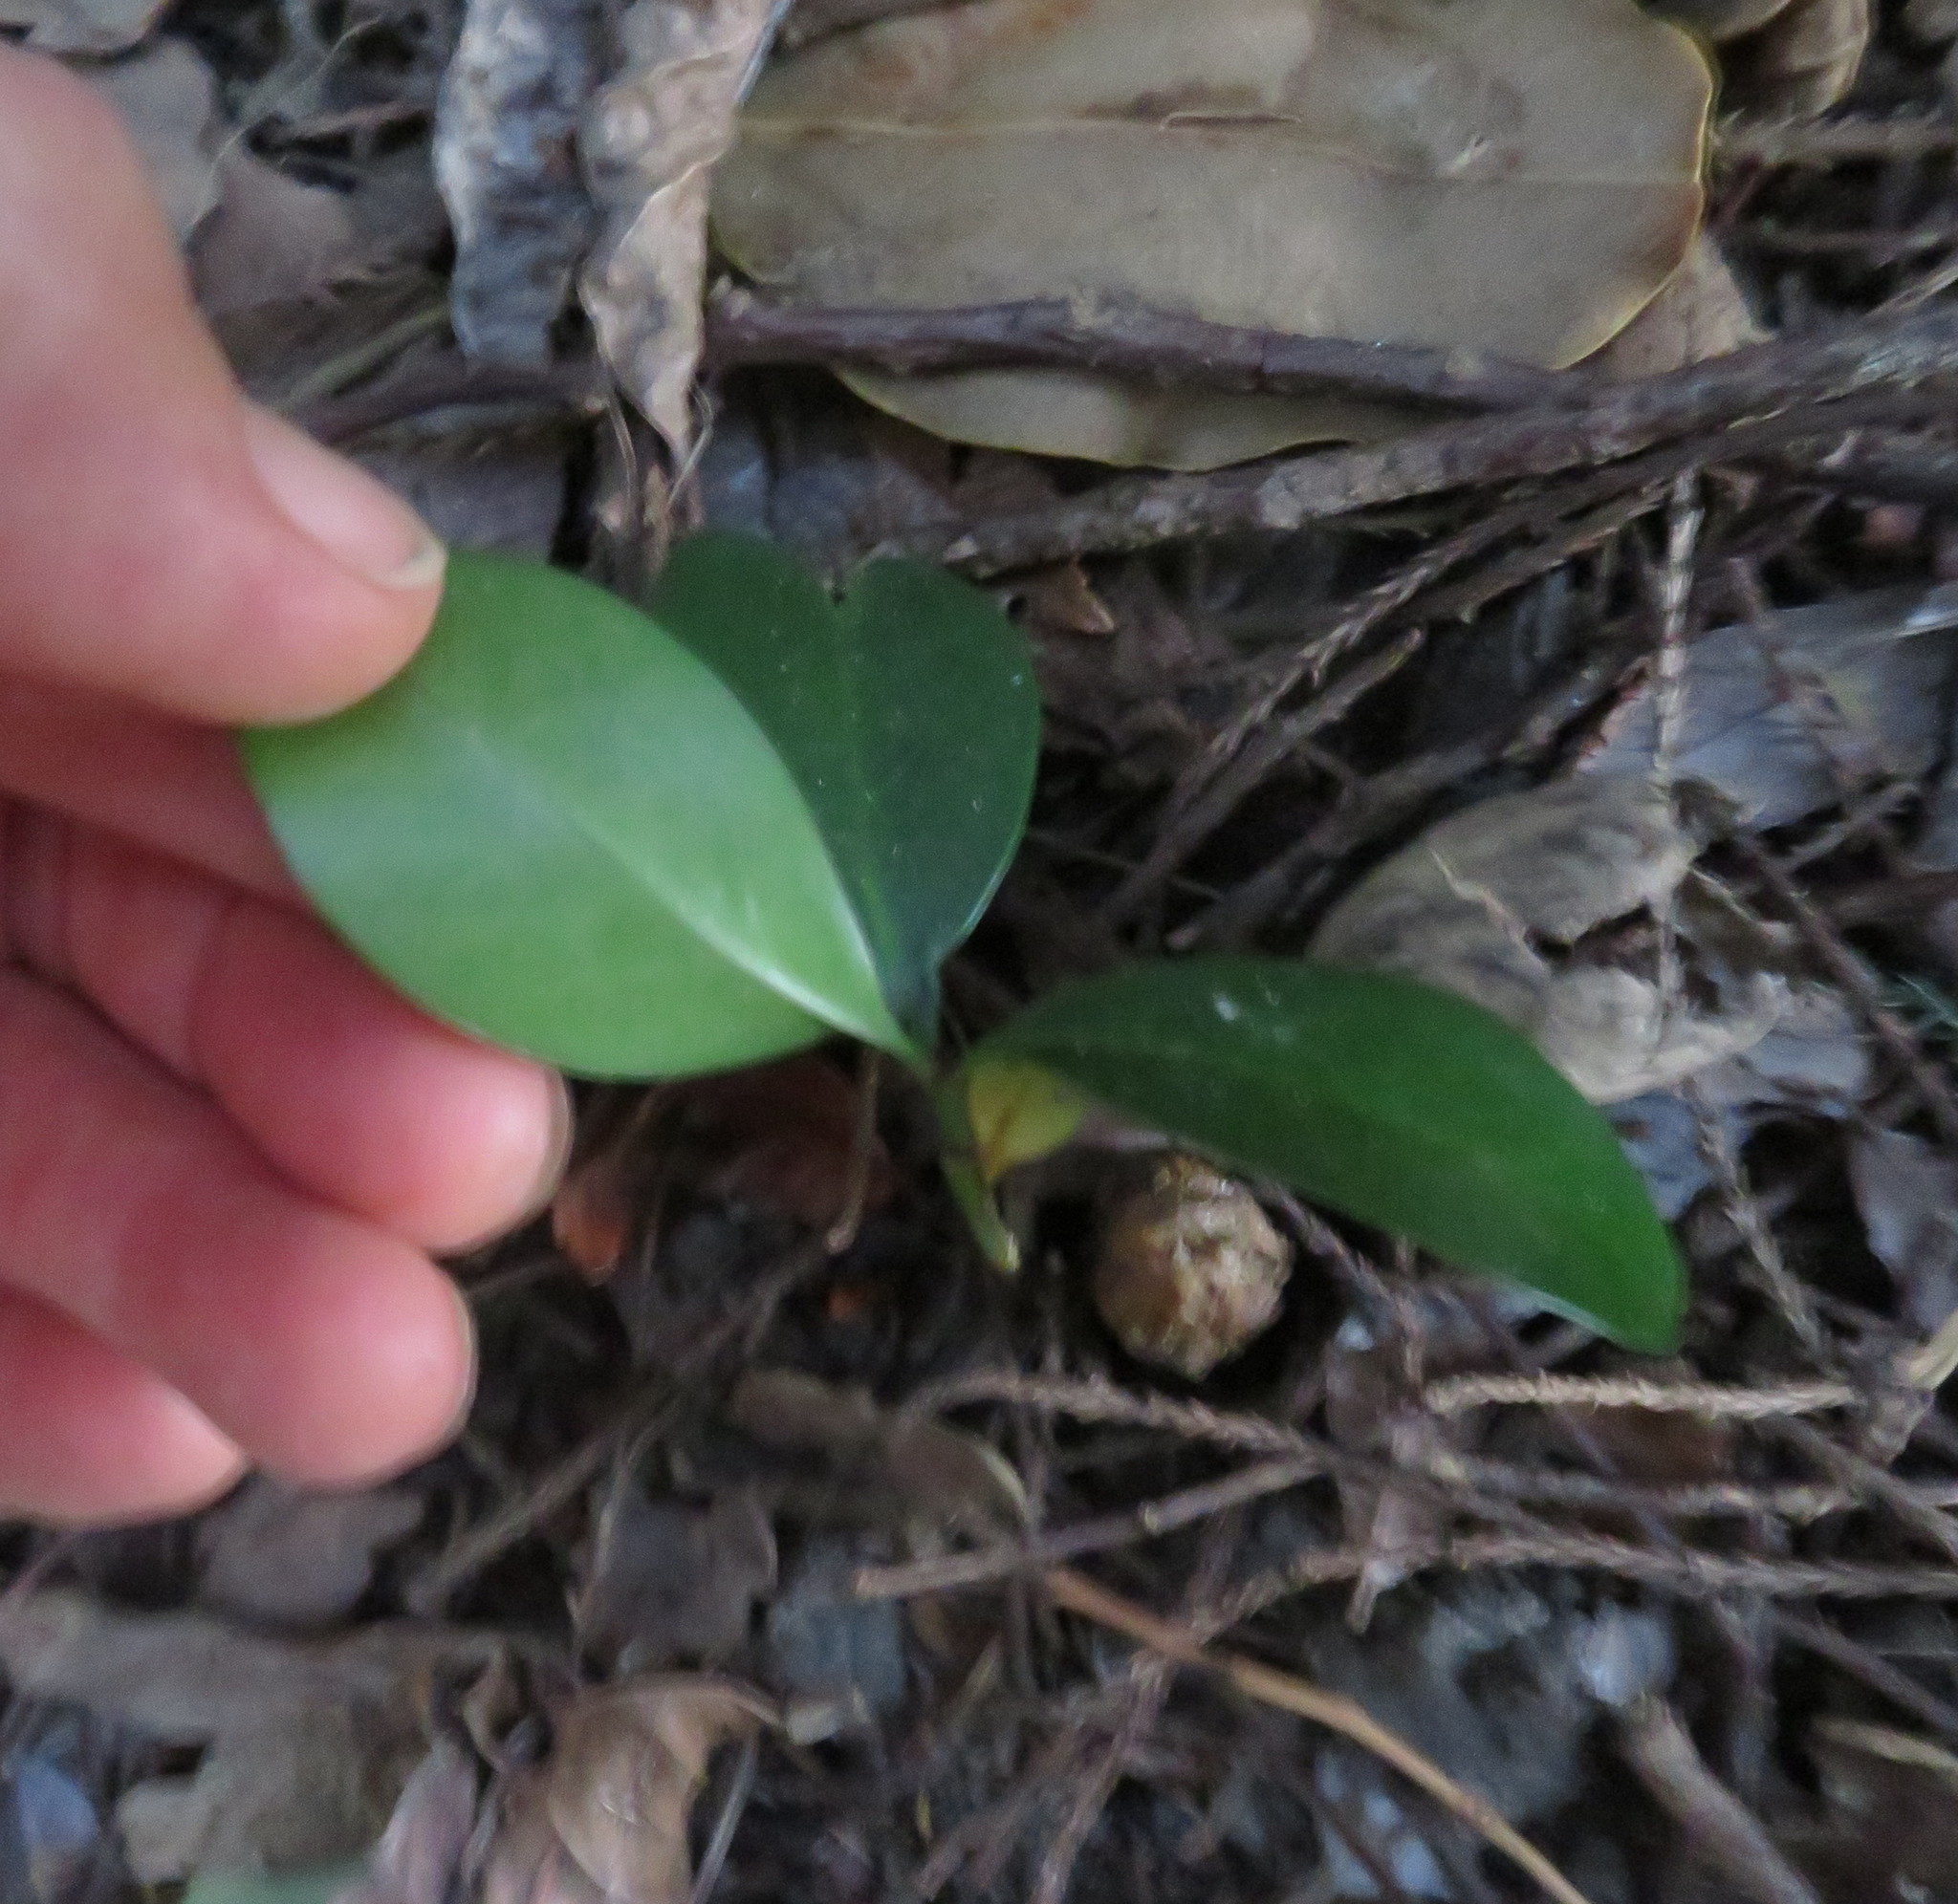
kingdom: Plantae
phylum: Tracheophyta
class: Magnoliopsida
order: Cucurbitales
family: Corynocarpaceae
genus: Corynocarpus
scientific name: Corynocarpus laevigatus
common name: New zealand laurel
